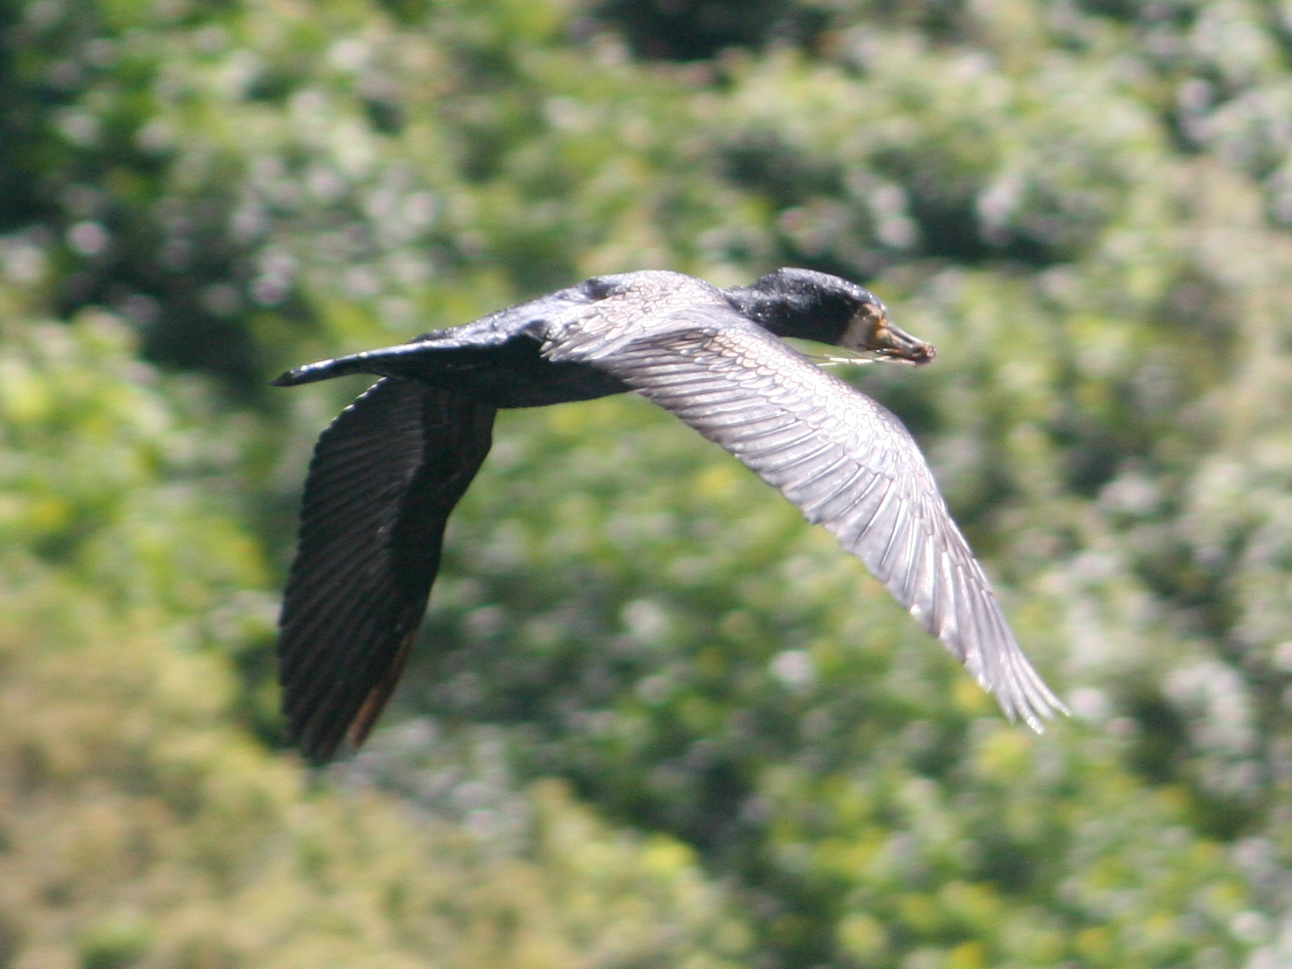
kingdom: Animalia
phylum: Chordata
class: Aves
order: Suliformes
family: Phalacrocoracidae
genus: Phalacrocorax
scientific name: Phalacrocorax carbo
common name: Great cormorant
